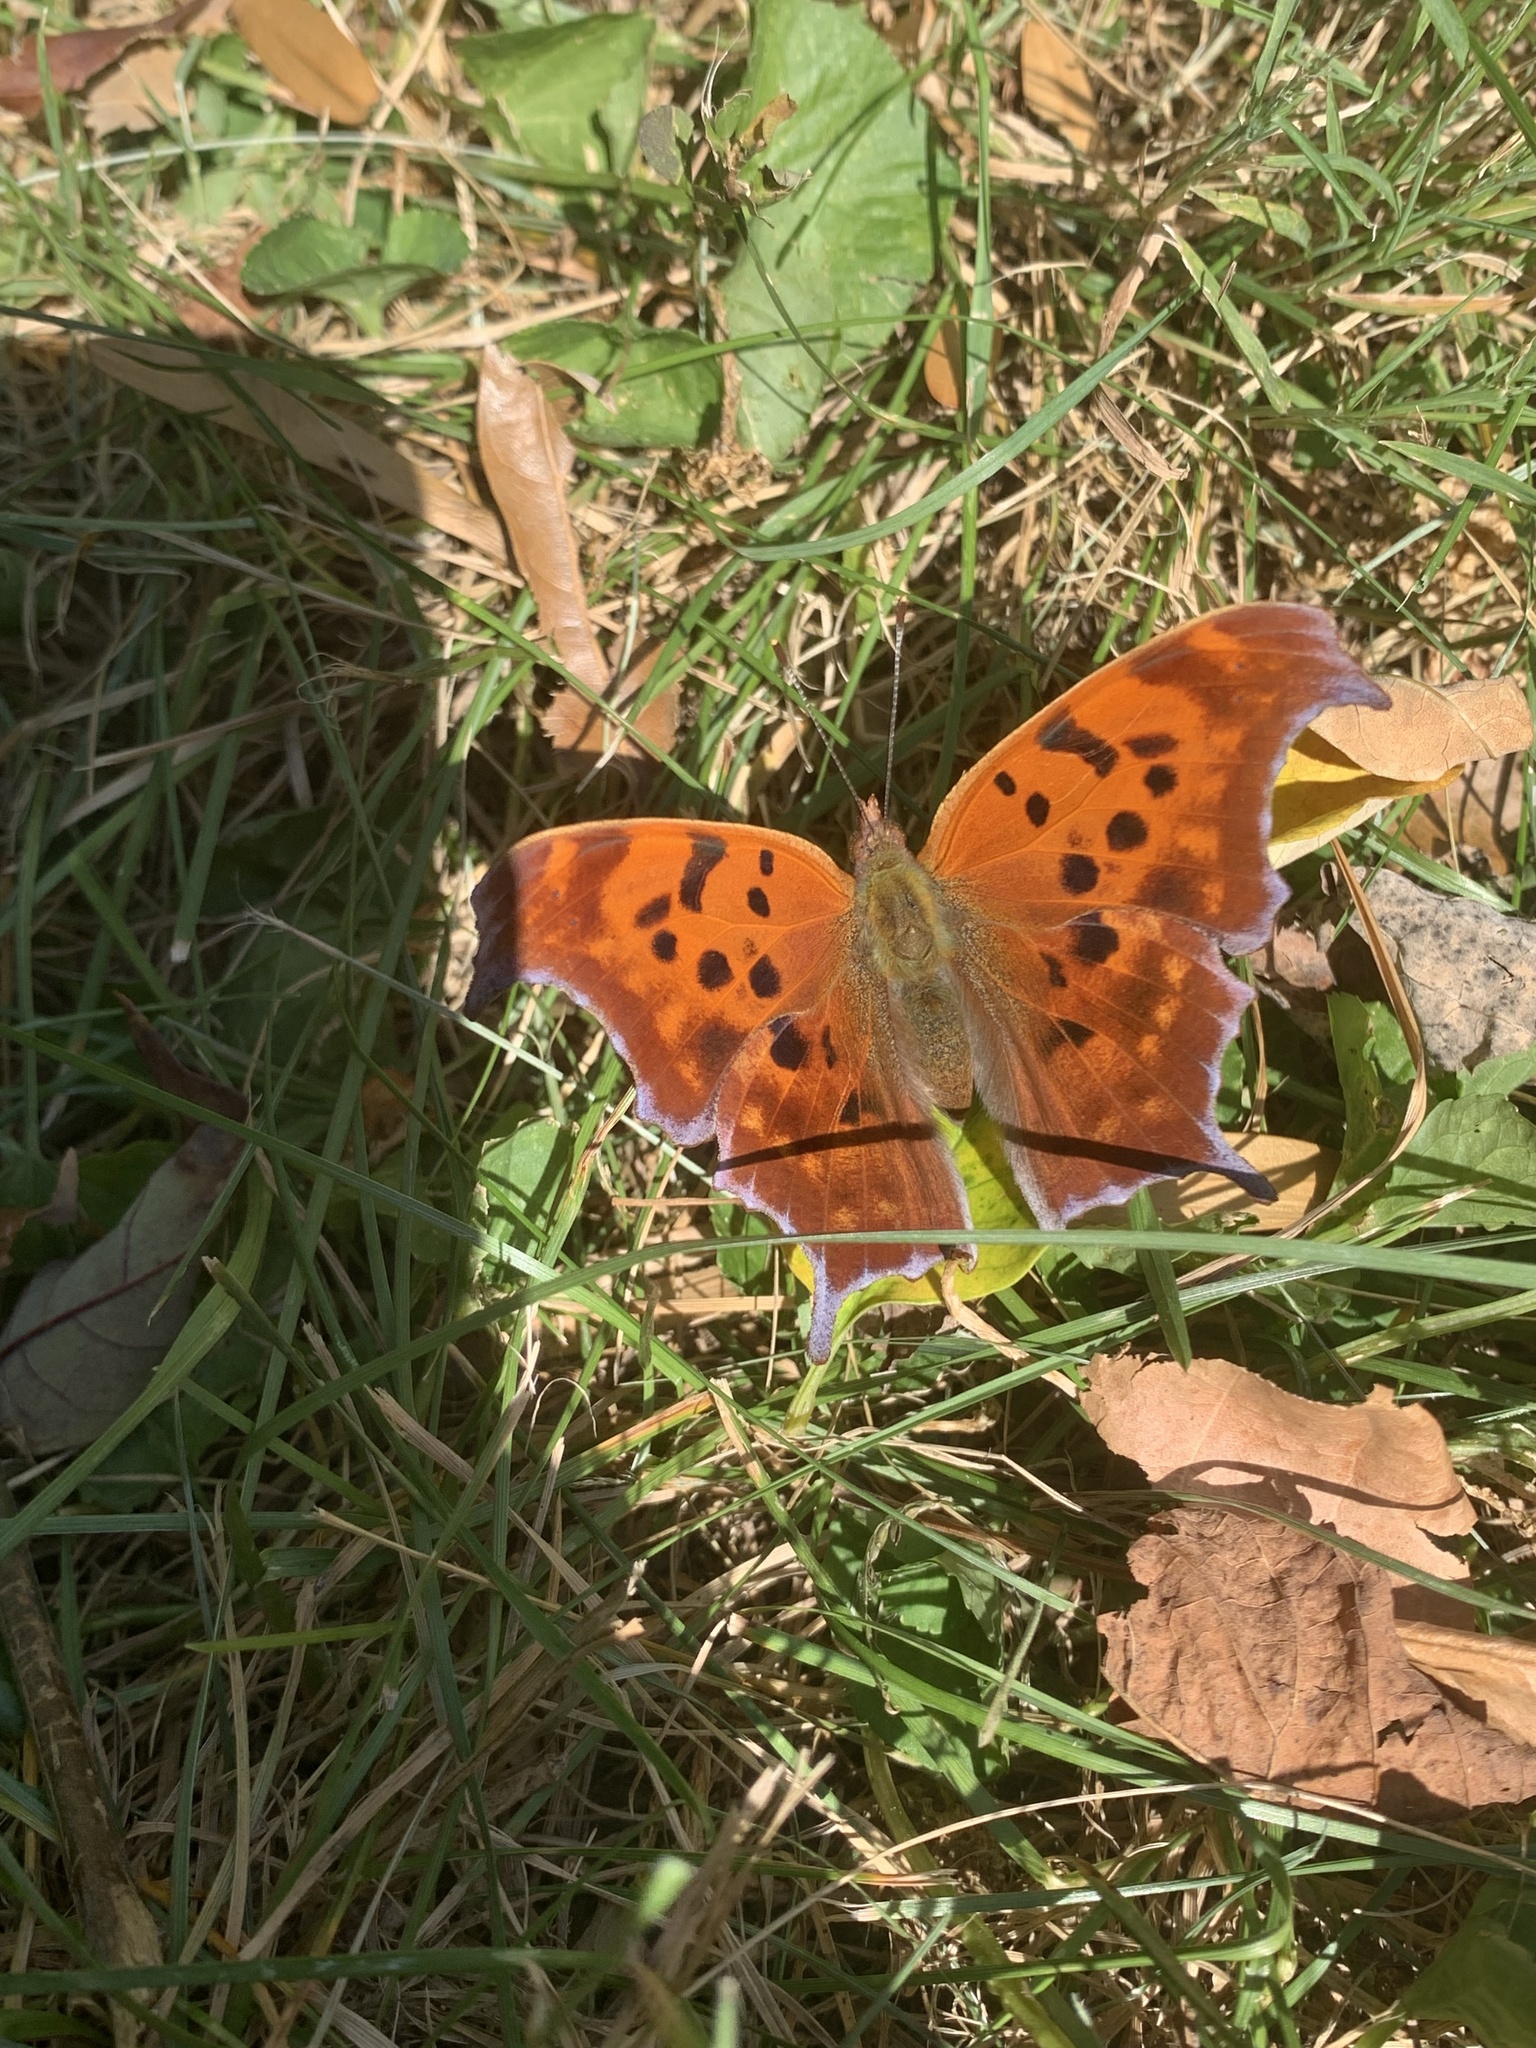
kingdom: Animalia
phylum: Arthropoda
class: Insecta
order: Lepidoptera
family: Nymphalidae
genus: Polygonia
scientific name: Polygonia interrogationis
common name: Question mark
